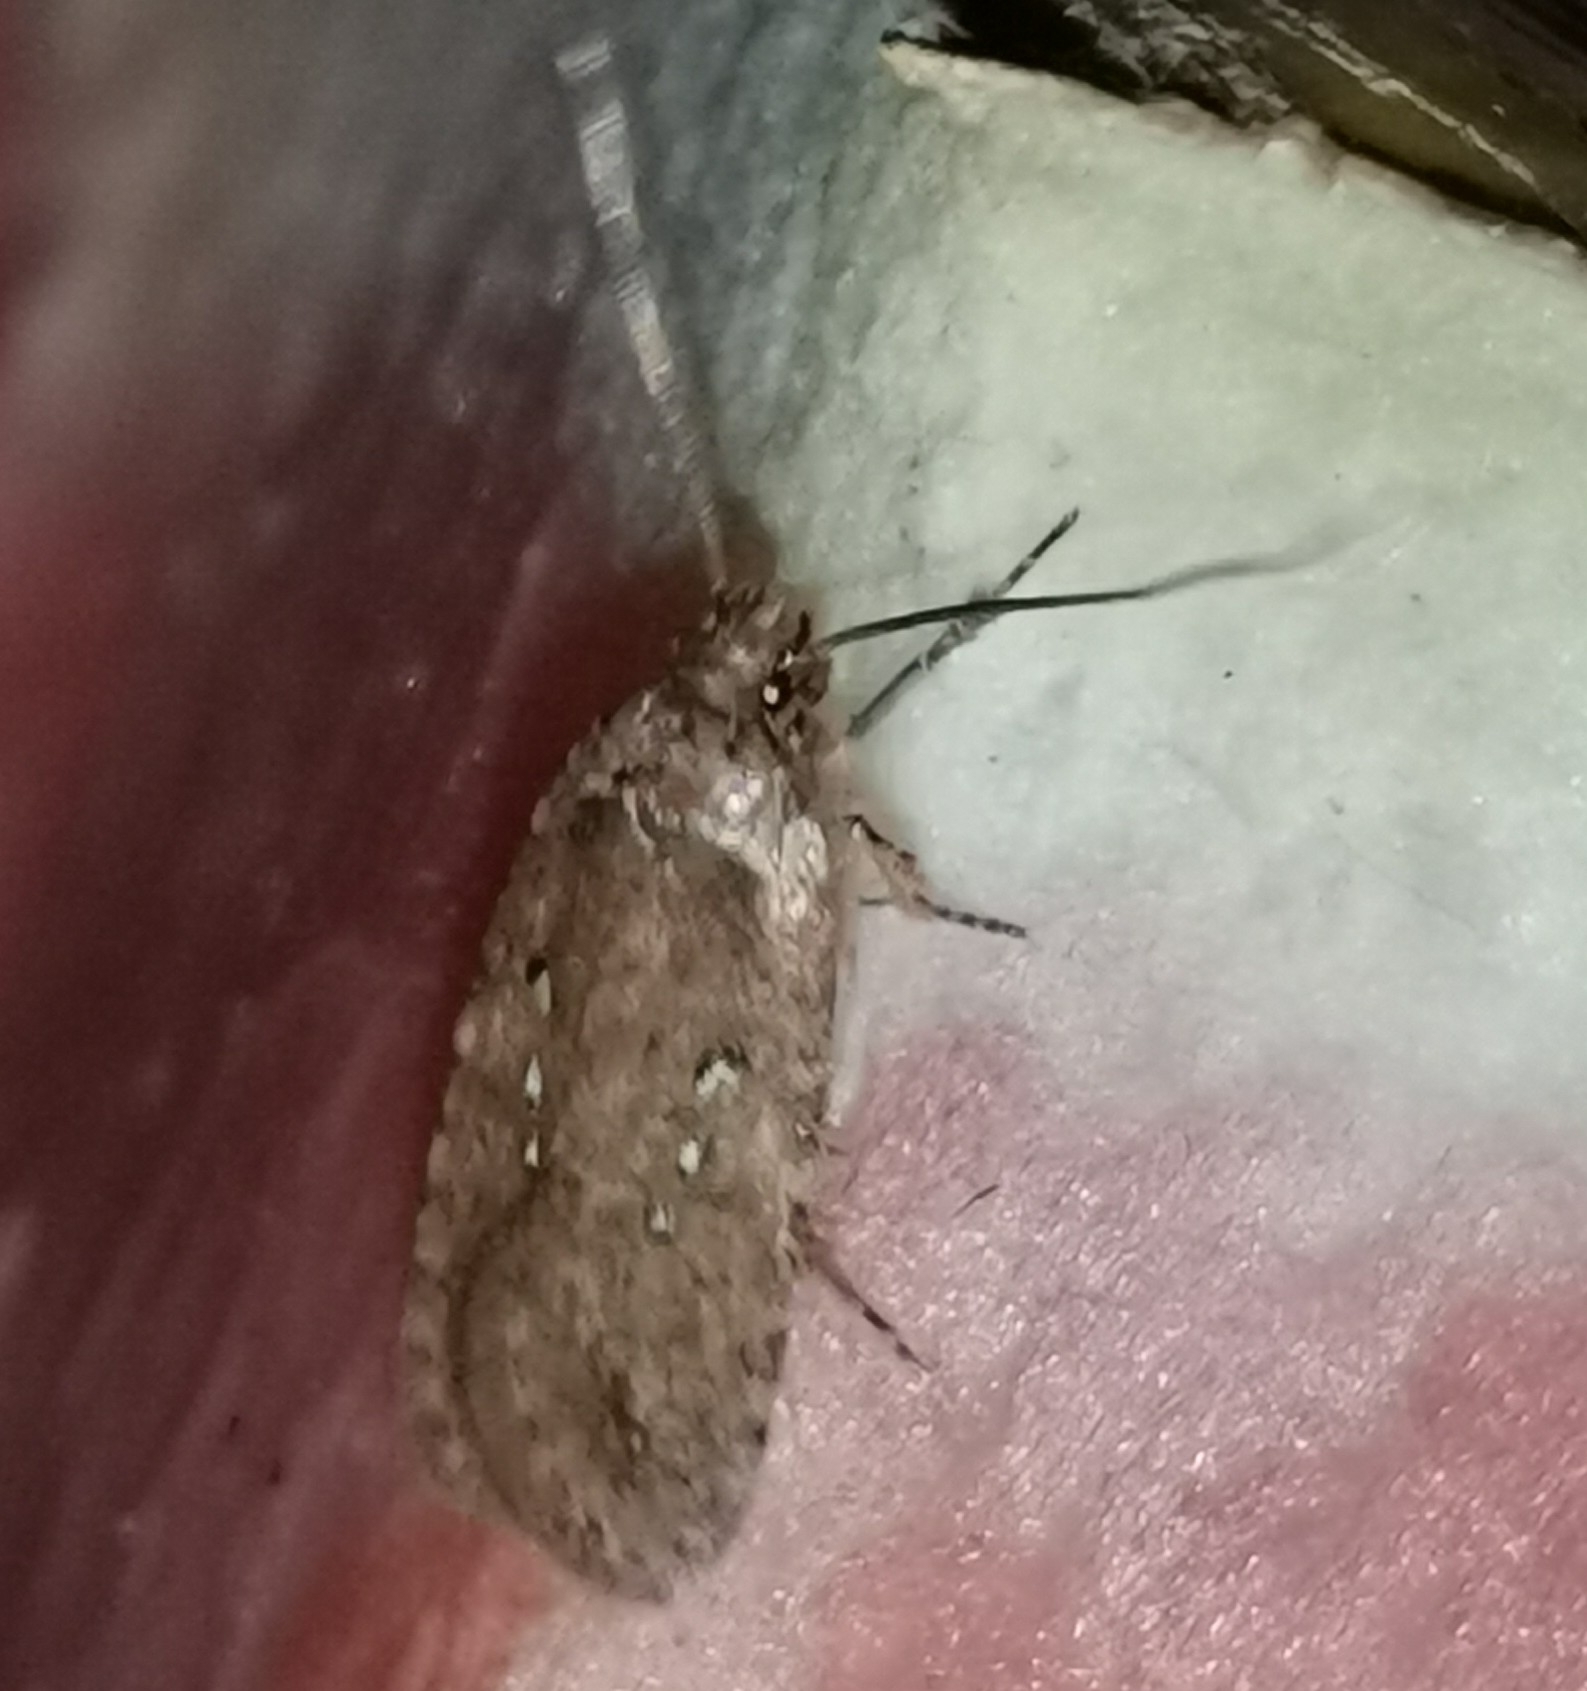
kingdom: Animalia
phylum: Arthropoda
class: Insecta
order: Lepidoptera
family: Depressariidae
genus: Agonopterix
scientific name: Agonopterix heracliana
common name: Common flat-body
